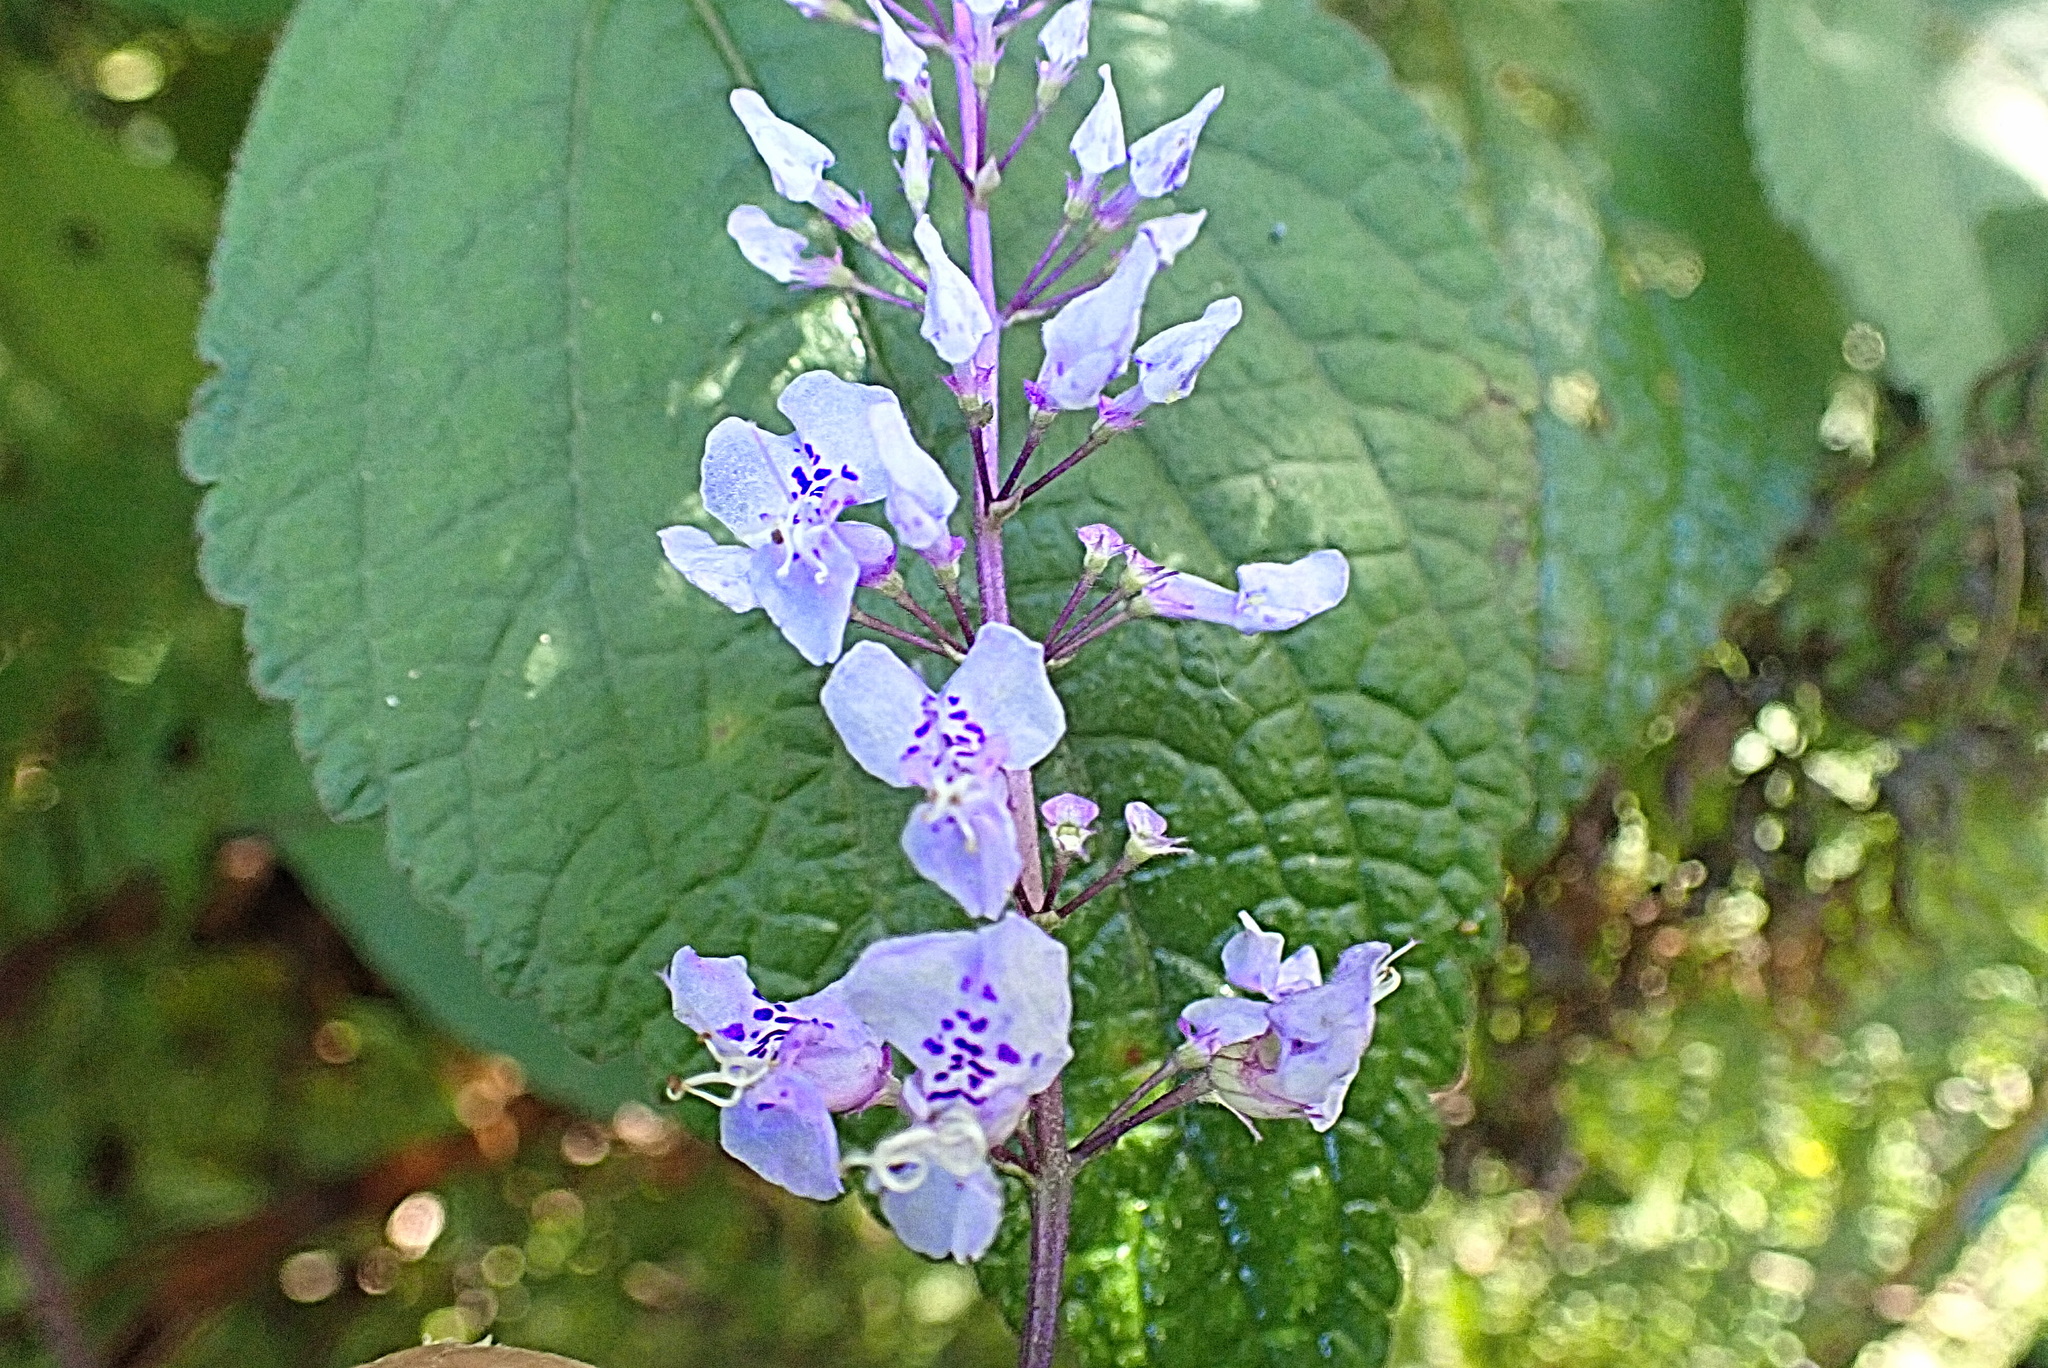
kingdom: Plantae
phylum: Tracheophyta
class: Magnoliopsida
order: Lamiales
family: Lamiaceae
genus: Plectranthus
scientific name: Plectranthus fruticosus
